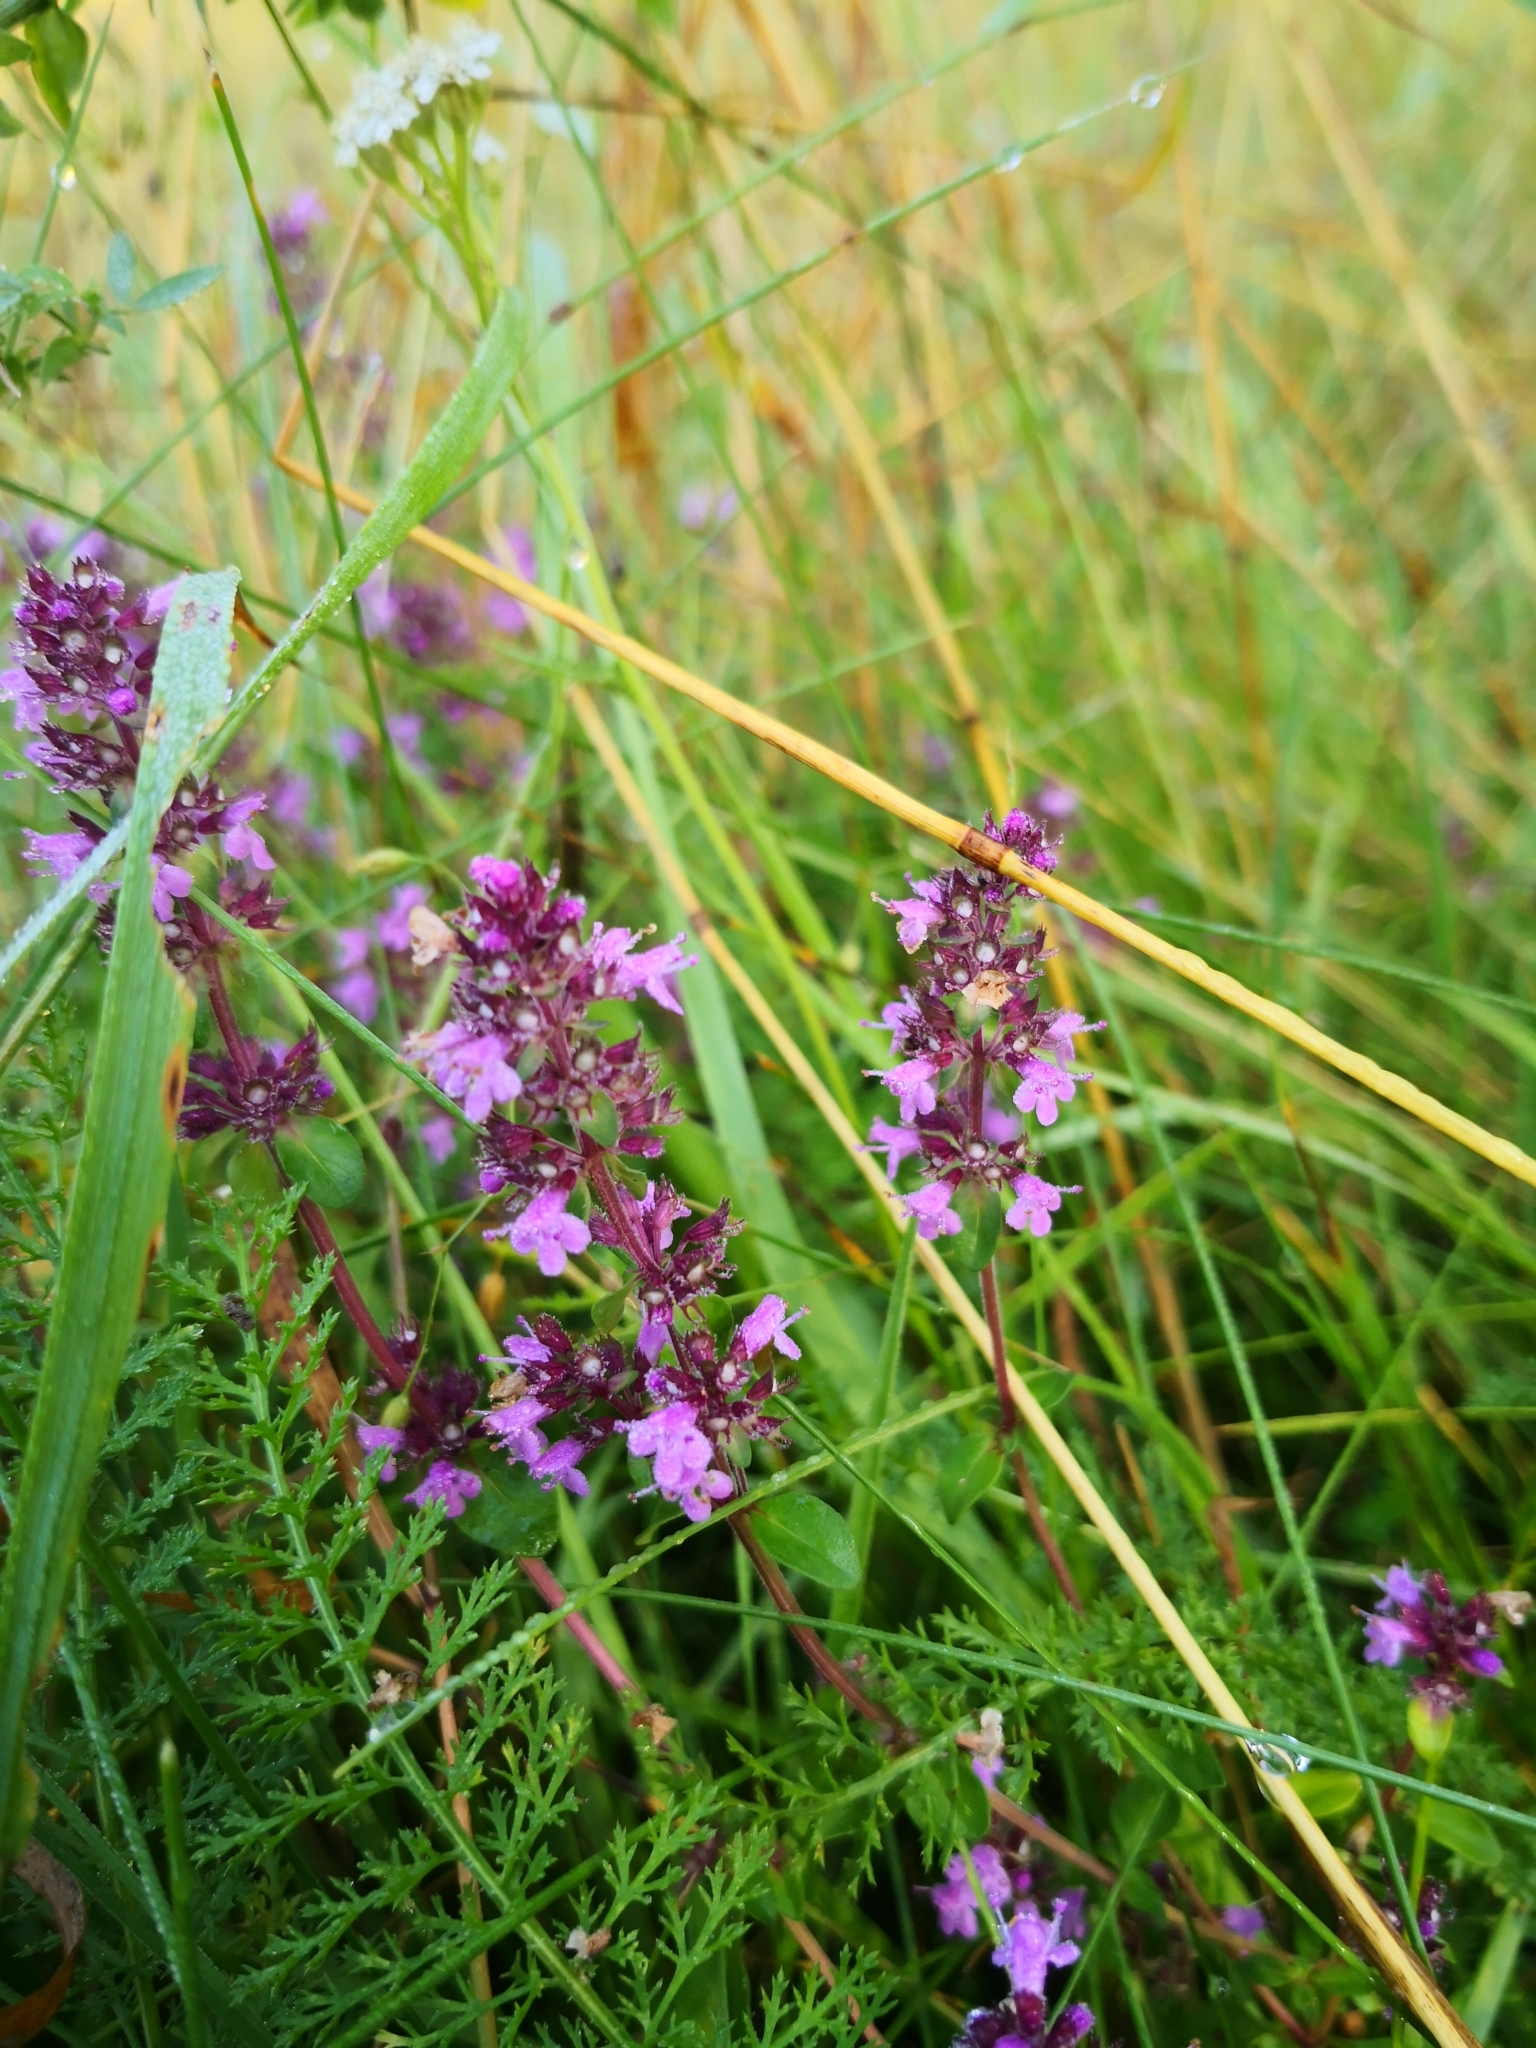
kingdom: Plantae
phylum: Tracheophyta
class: Magnoliopsida
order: Lamiales
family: Lamiaceae
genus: Thymus
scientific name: Thymus pulegioides
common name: Large thyme
